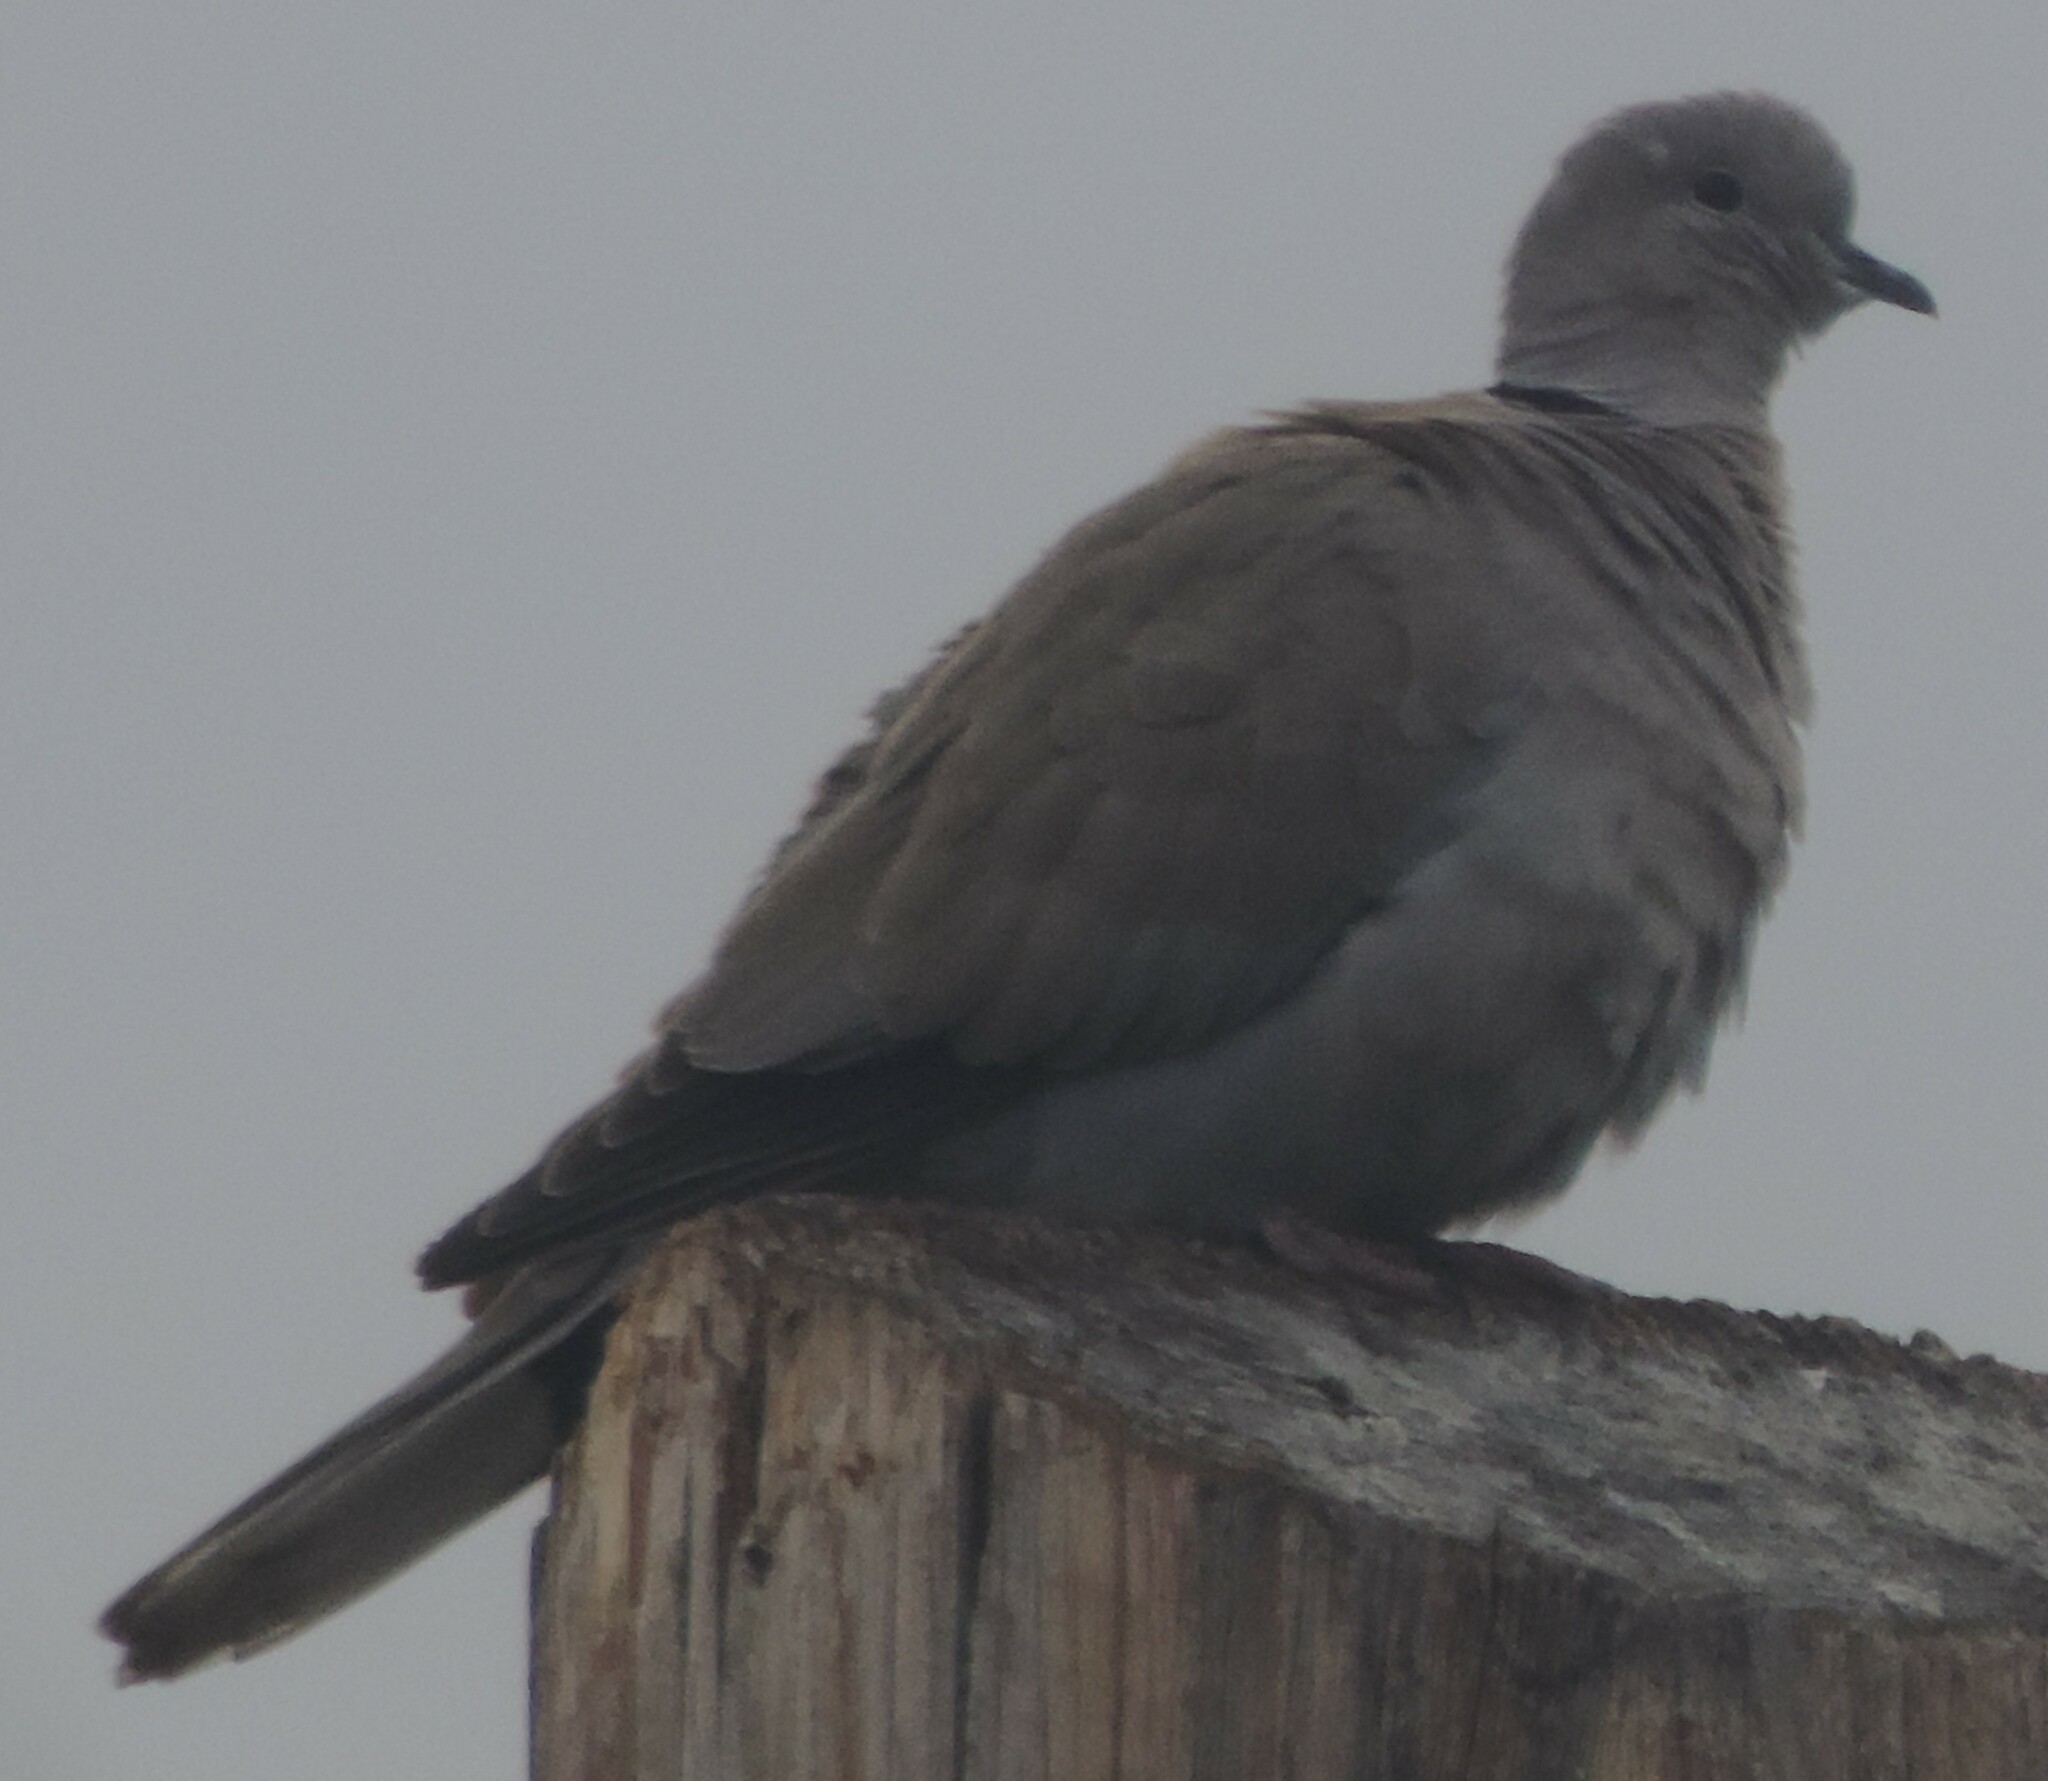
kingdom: Animalia
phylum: Chordata
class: Aves
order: Columbiformes
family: Columbidae
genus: Streptopelia
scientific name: Streptopelia decaocto
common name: Eurasian collared dove
